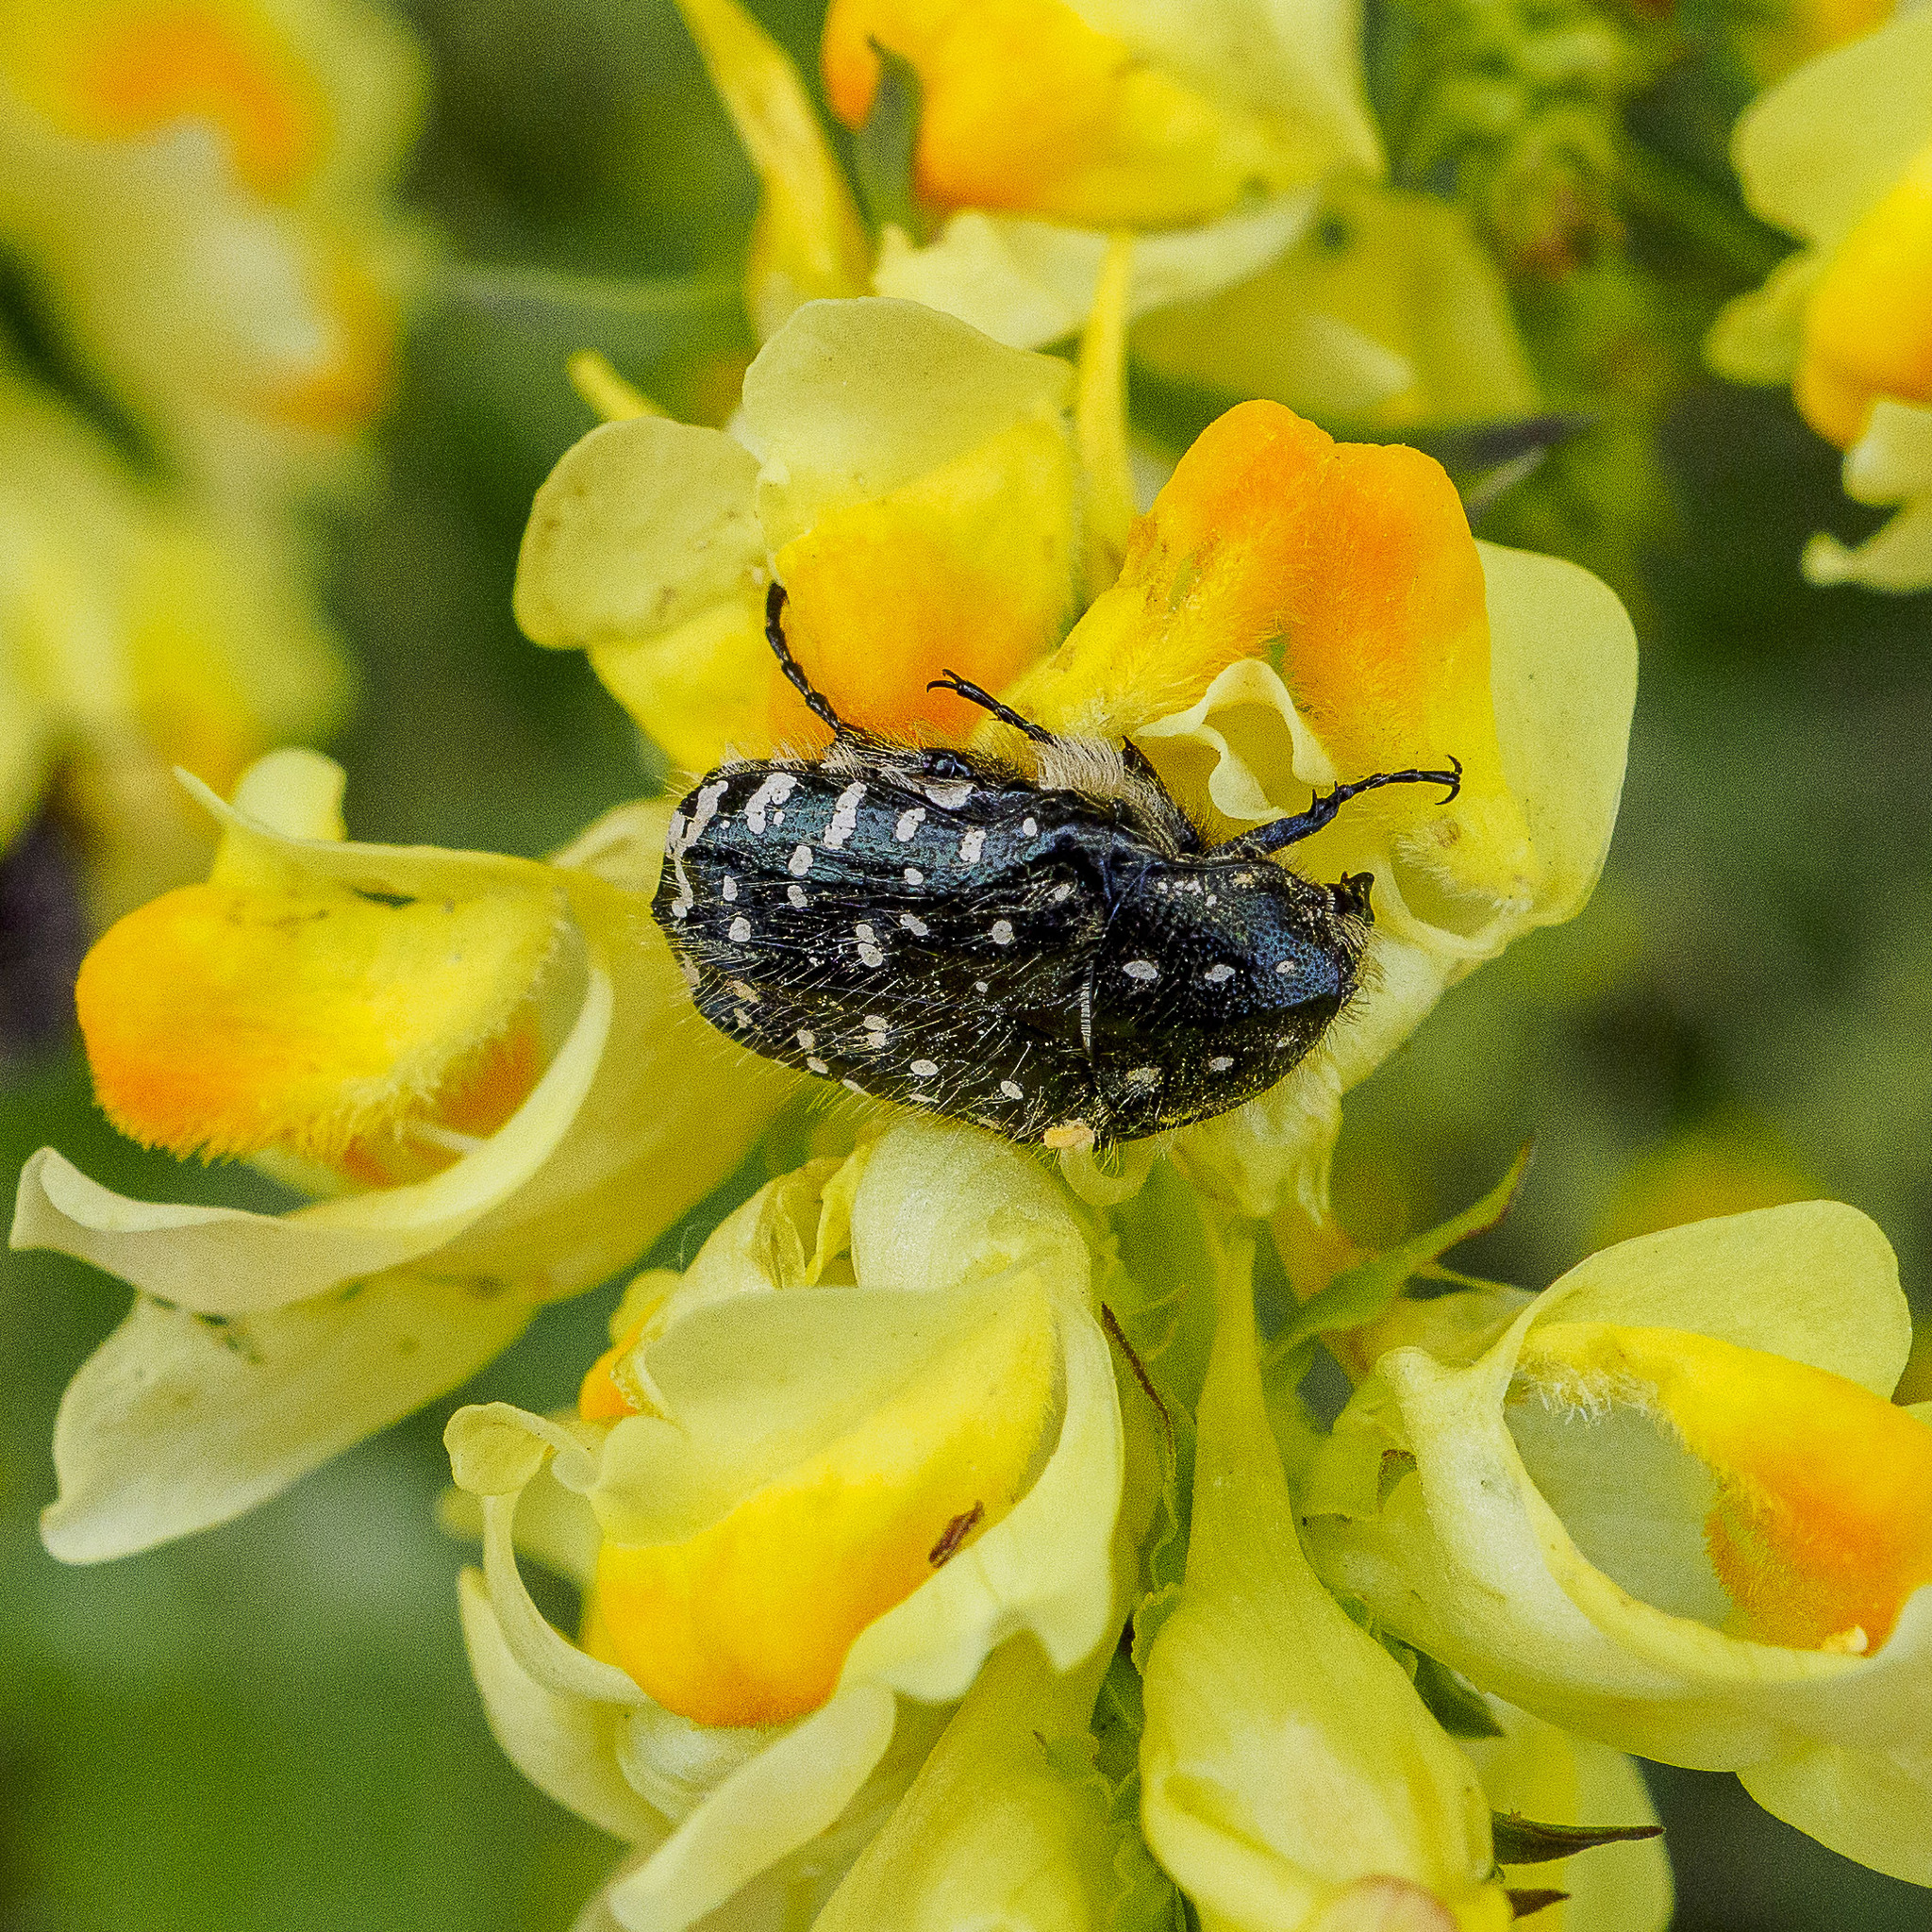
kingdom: Animalia
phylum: Arthropoda
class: Insecta
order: Coleoptera
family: Scarabaeidae
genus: Oxythyrea
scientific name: Oxythyrea funesta
